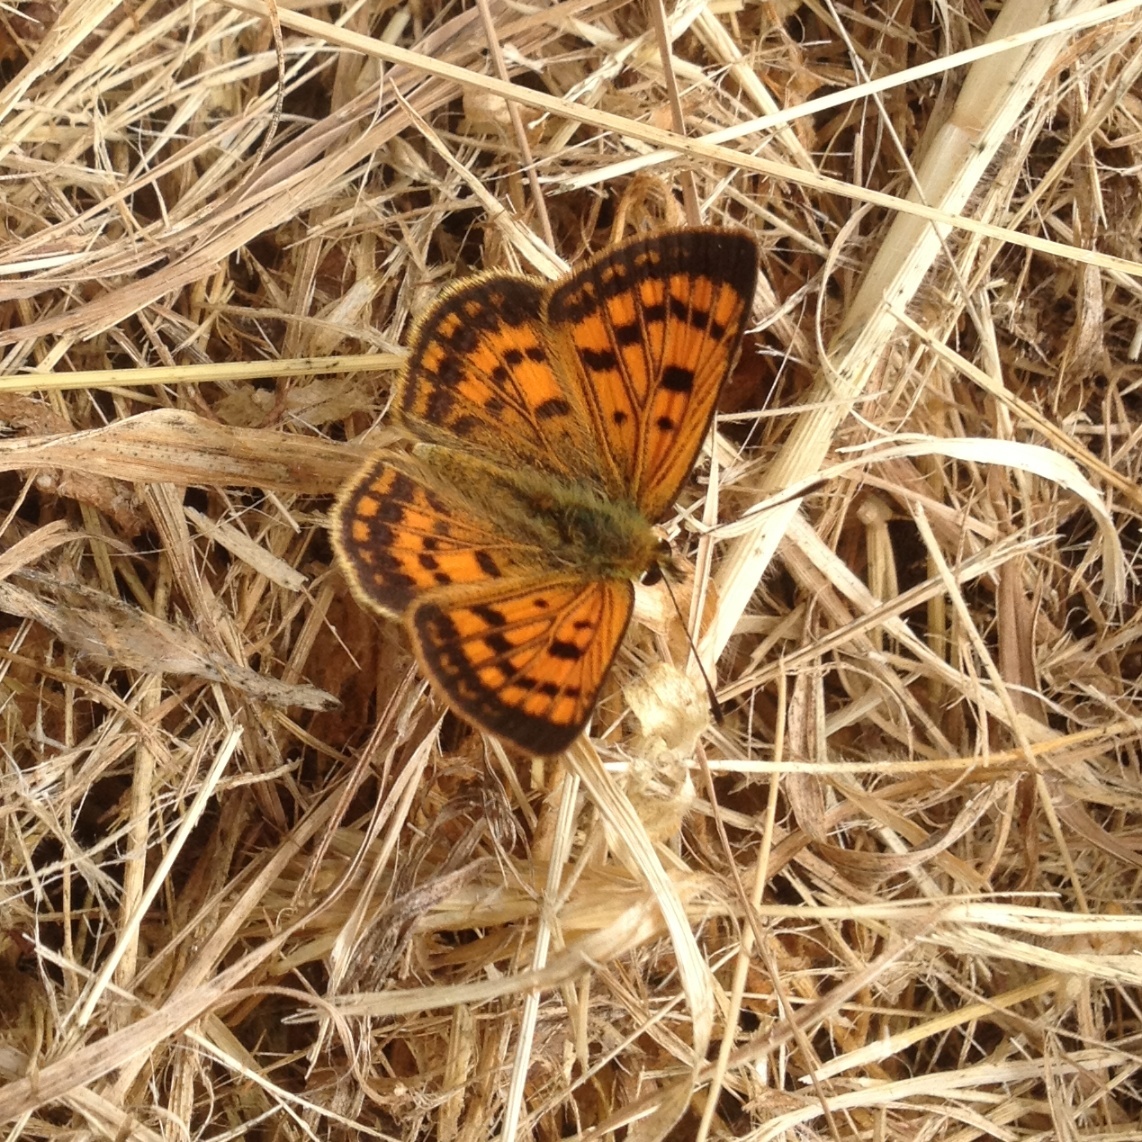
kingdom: Animalia
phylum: Arthropoda
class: Insecta
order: Lepidoptera
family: Lycaenidae
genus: Lycaena
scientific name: Lycaena salustius
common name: North island coastal copper
